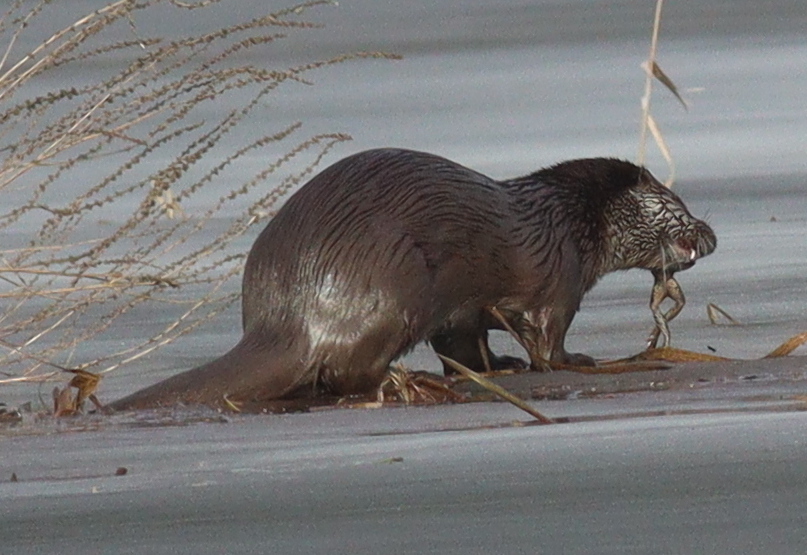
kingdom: Animalia
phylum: Chordata
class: Mammalia
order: Carnivora
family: Mustelidae
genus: Lutra
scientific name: Lutra lutra
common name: European otter
